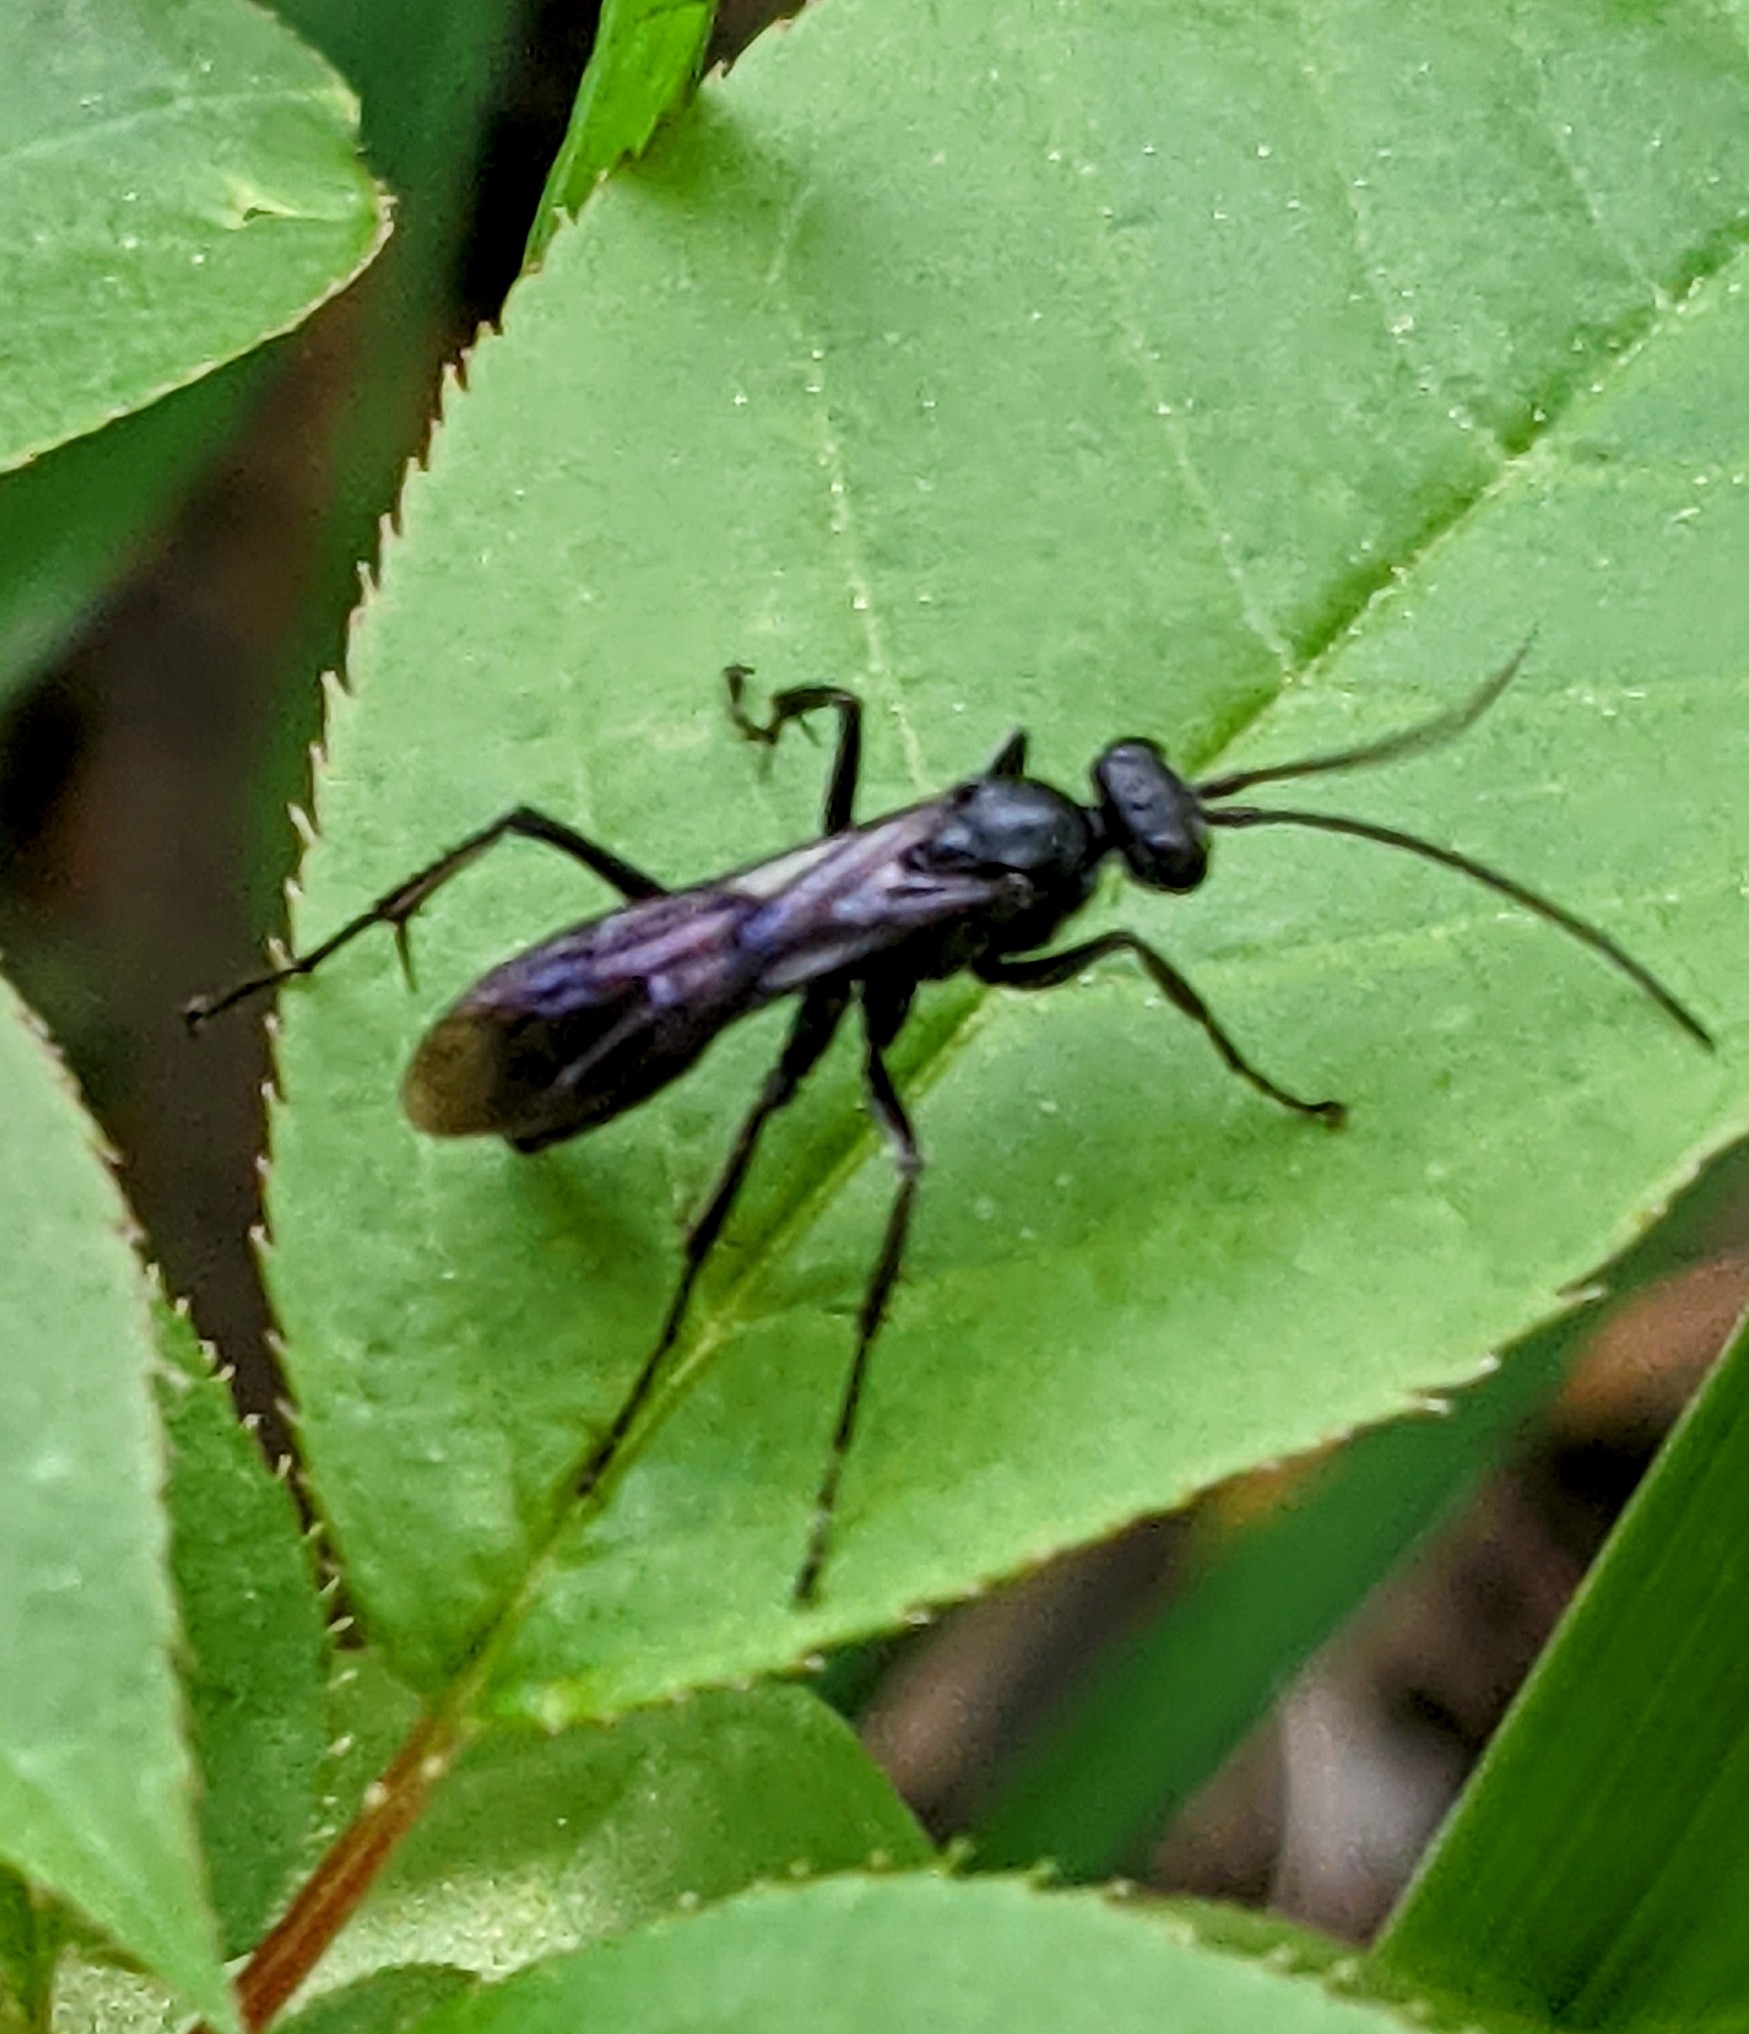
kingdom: Animalia
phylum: Arthropoda
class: Insecta
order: Hymenoptera
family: Pompilidae
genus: Priocnemis
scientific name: Priocnemis minorata
